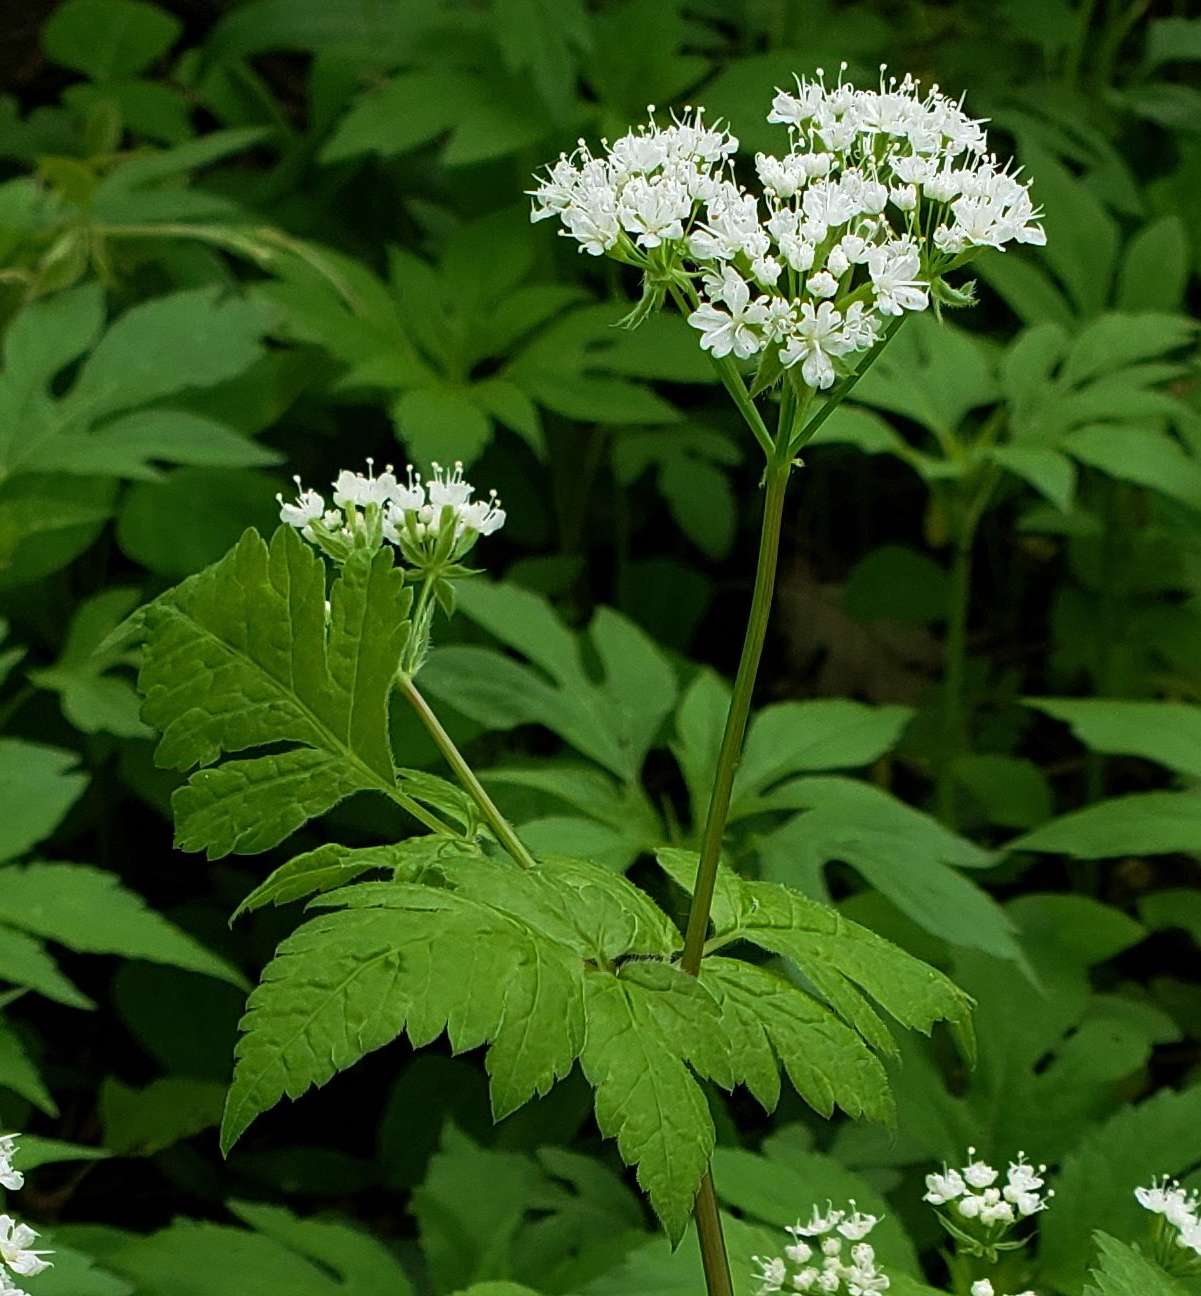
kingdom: Plantae
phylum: Tracheophyta
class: Magnoliopsida
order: Apiales
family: Apiaceae
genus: Osmorhiza
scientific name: Osmorhiza longistylis
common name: Smooth sweet cicely
